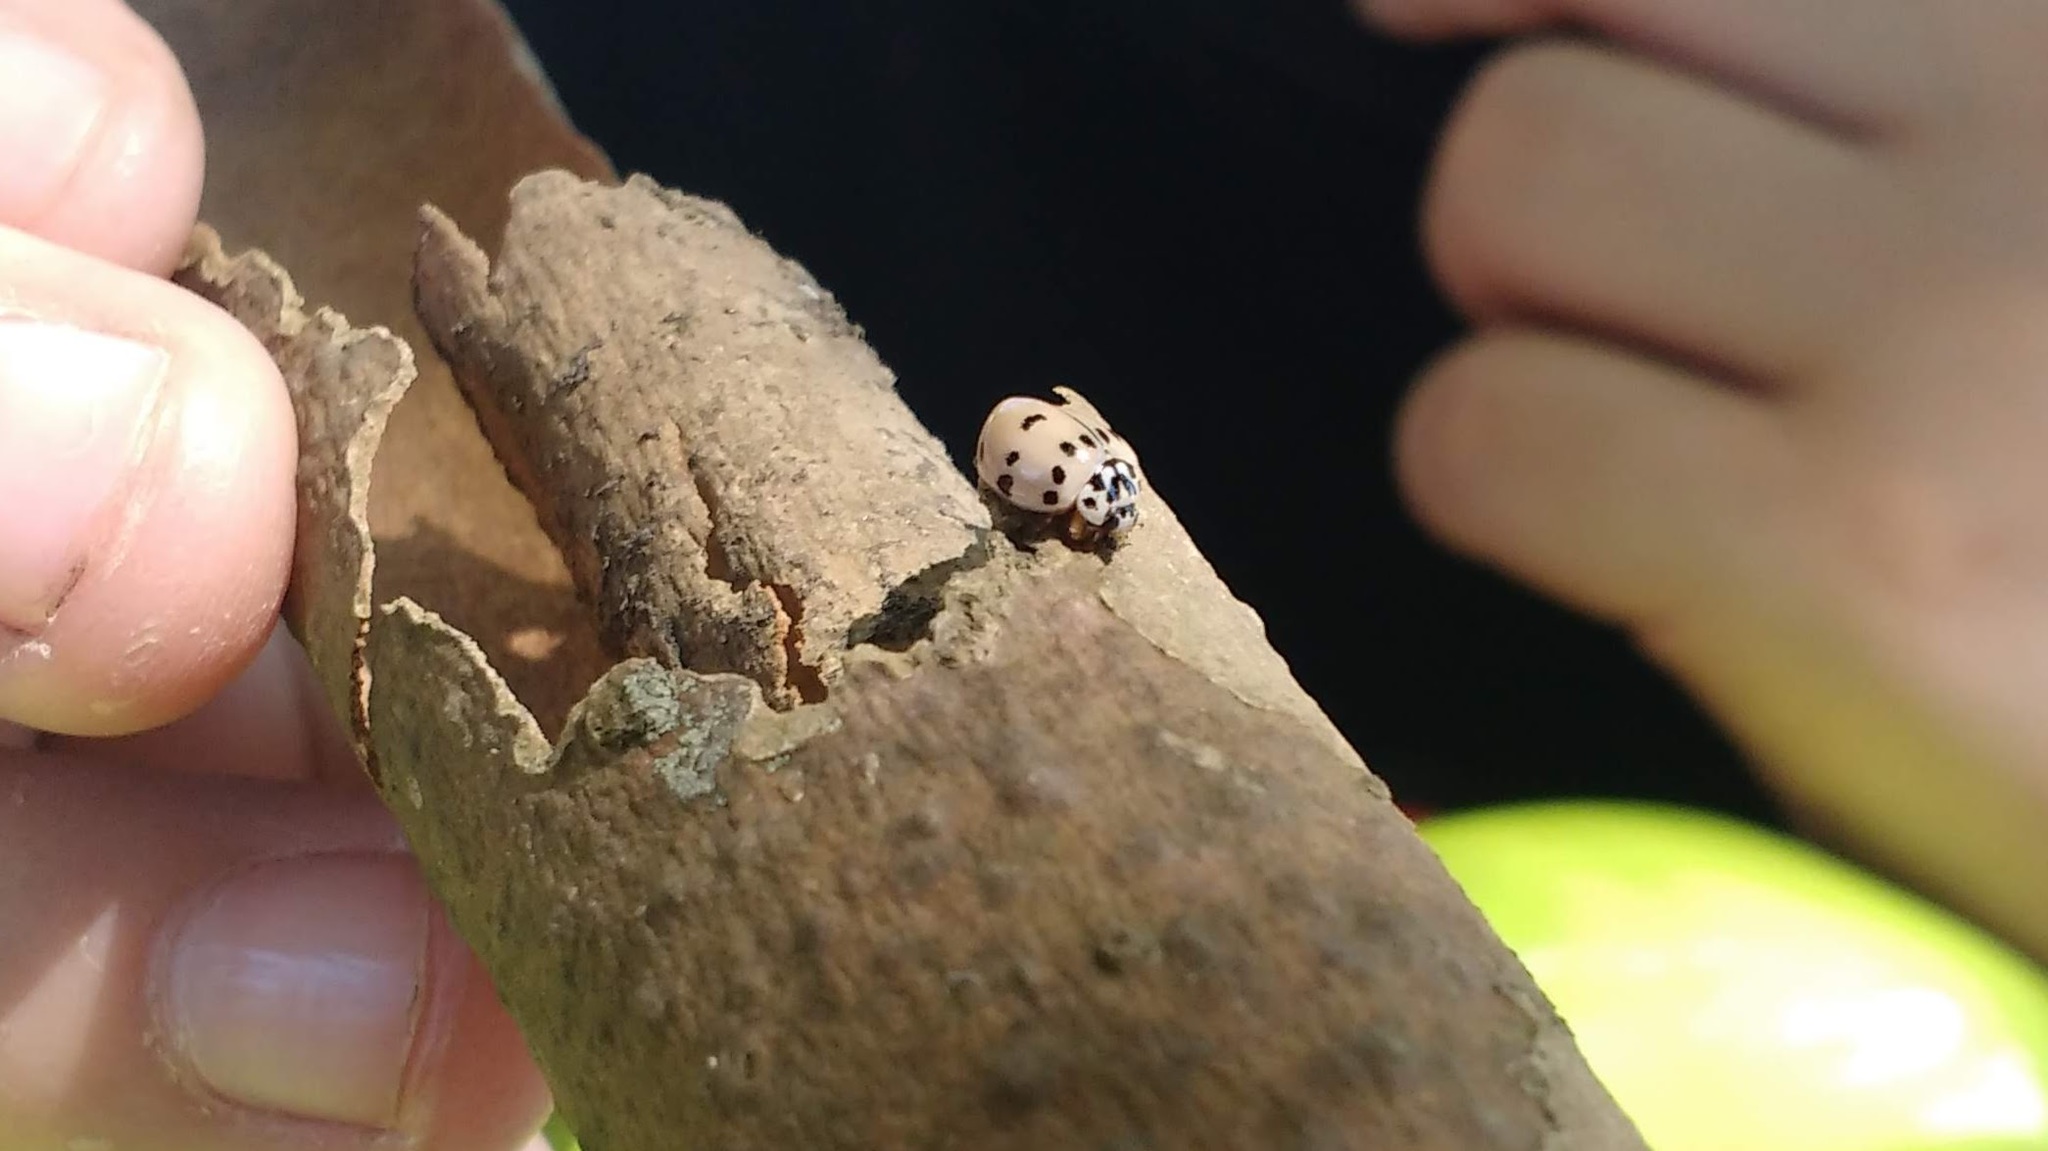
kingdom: Animalia
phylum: Arthropoda
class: Insecta
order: Coleoptera
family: Coccinellidae
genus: Olla
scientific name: Olla v-nigrum
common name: Ashy gray lady beetle
